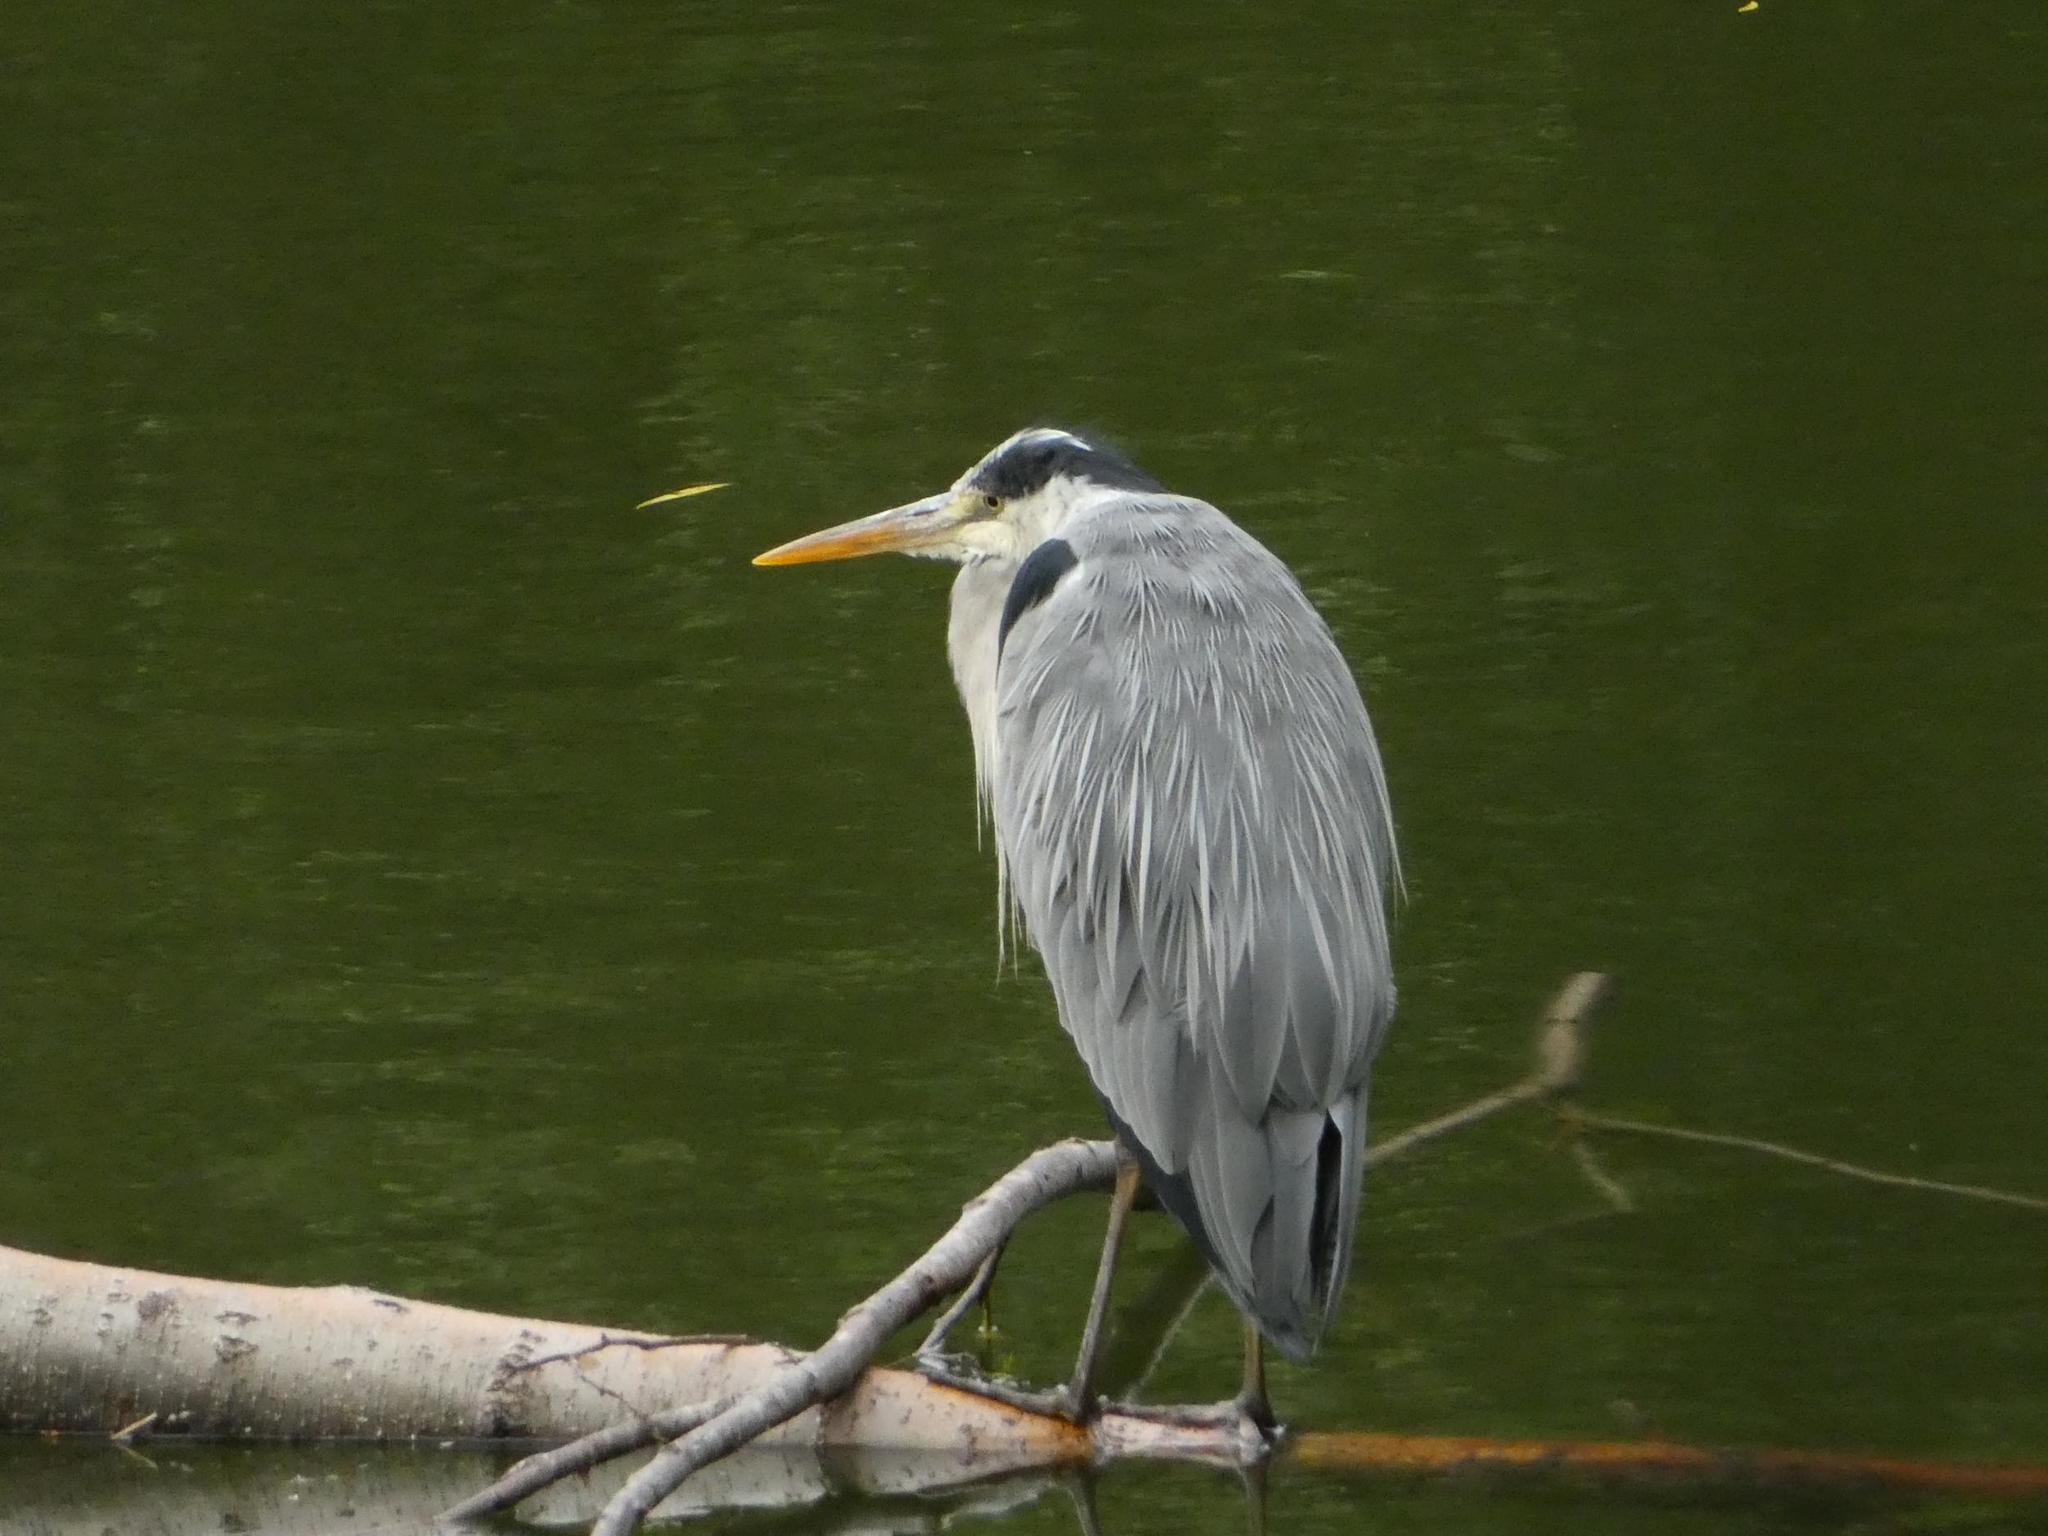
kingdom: Animalia
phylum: Chordata
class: Aves
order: Pelecaniformes
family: Ardeidae
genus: Ardea
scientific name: Ardea cinerea
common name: Grey heron
